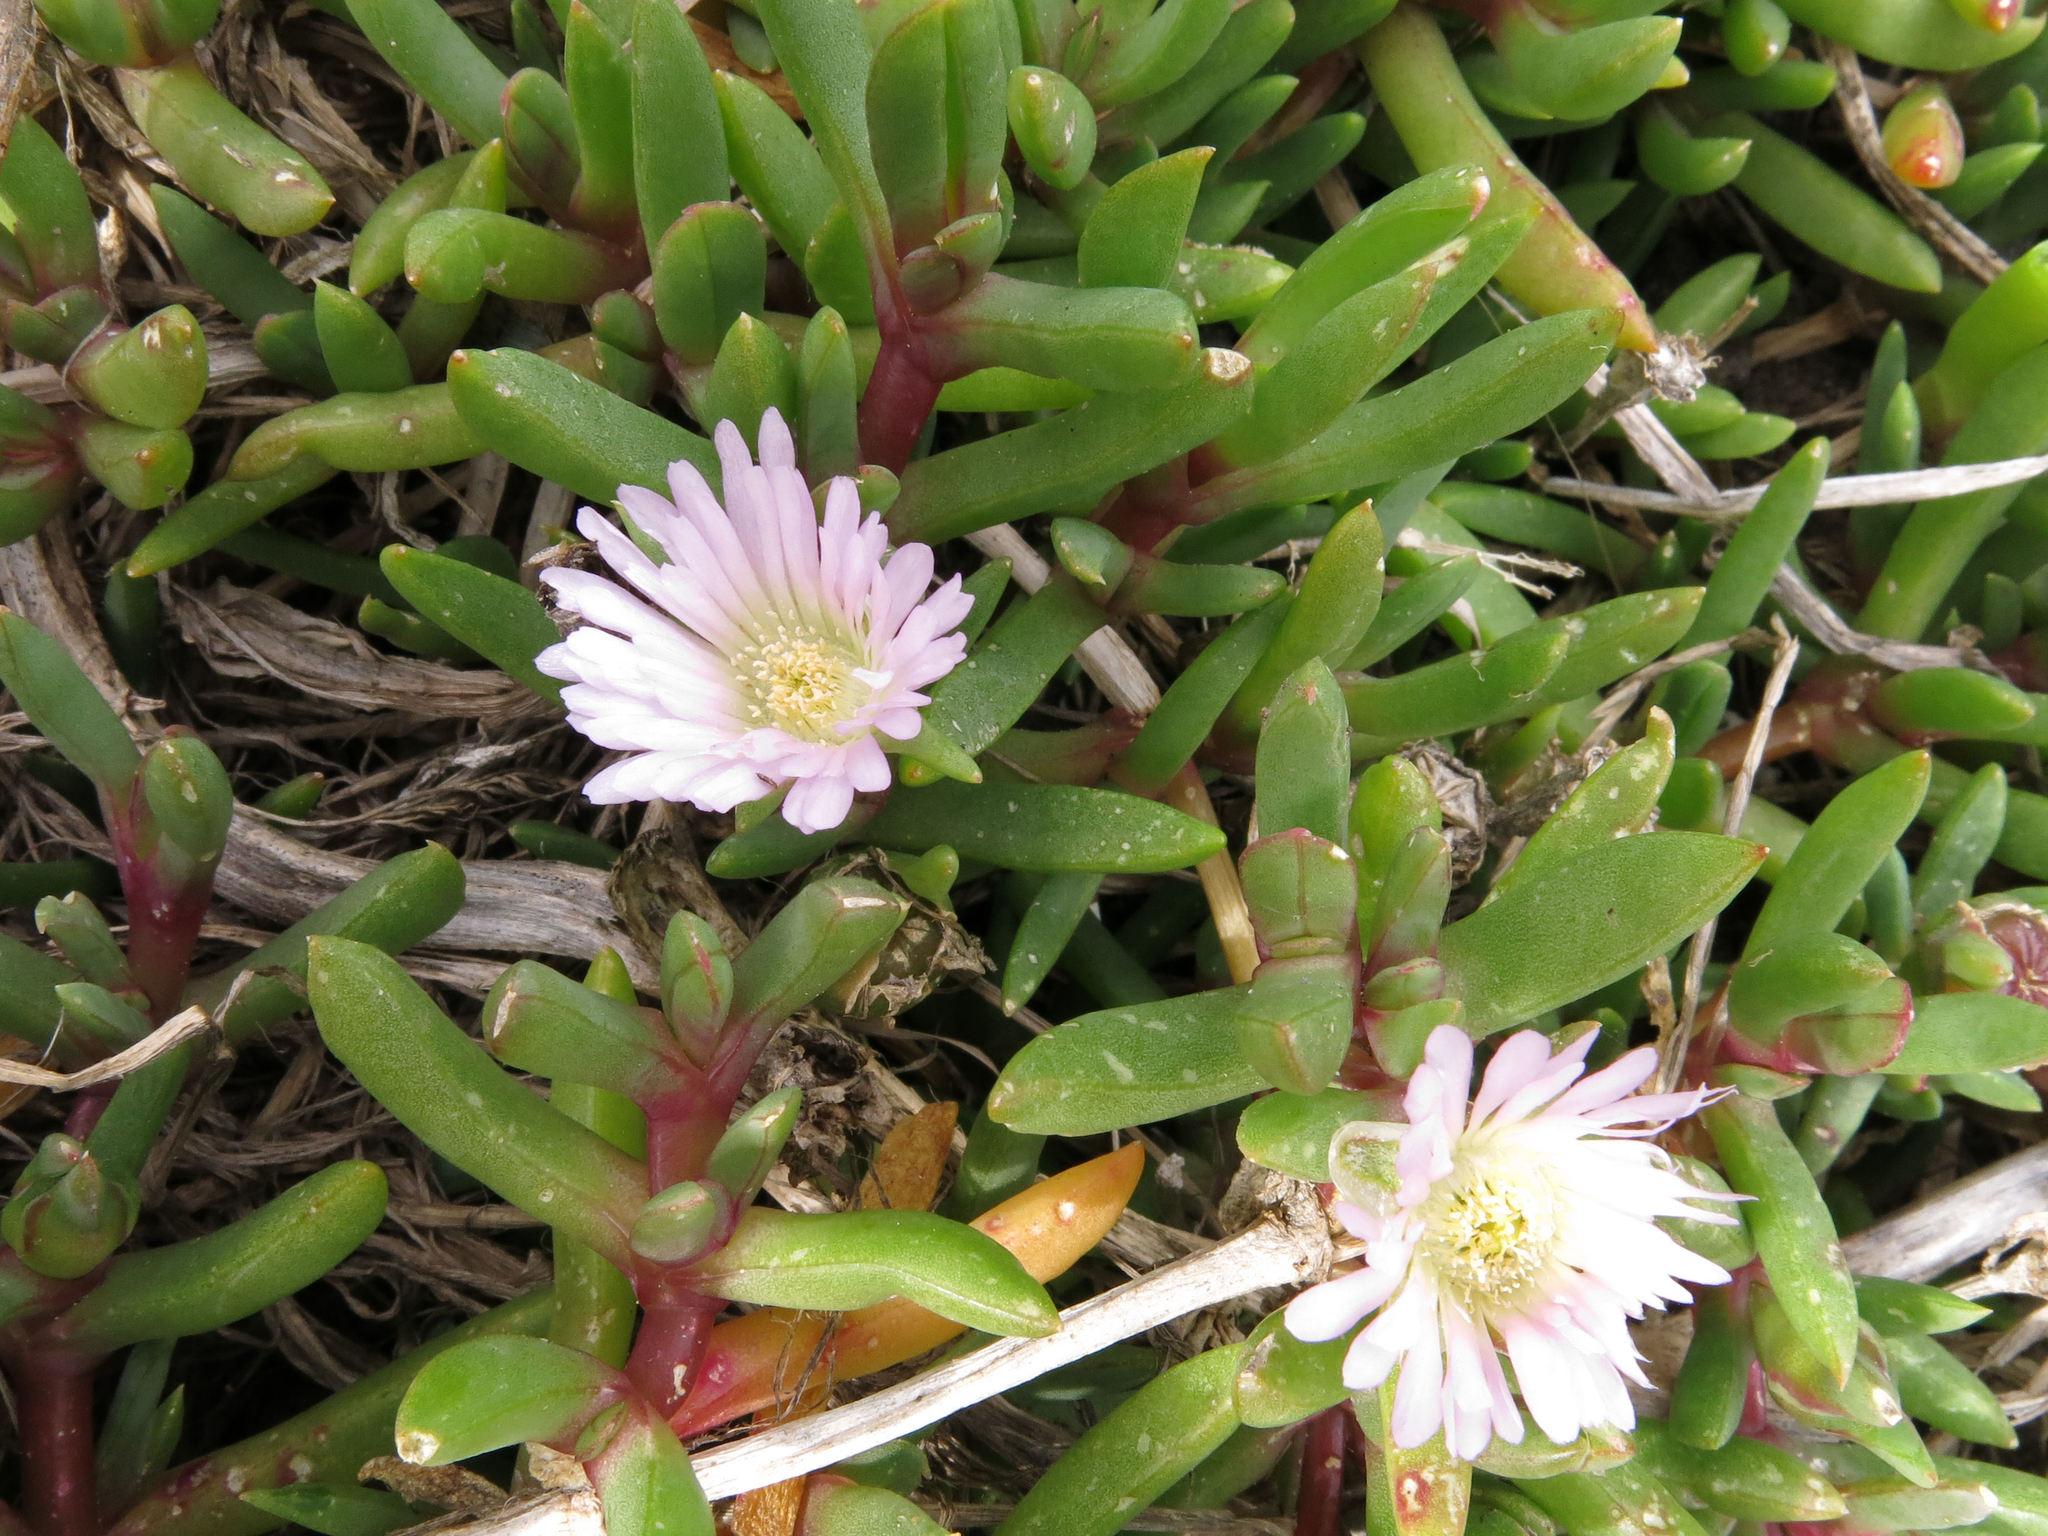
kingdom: Plantae
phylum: Tracheophyta
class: Magnoliopsida
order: Caryophyllales
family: Aizoaceae
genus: Disphyma
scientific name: Disphyma australe
